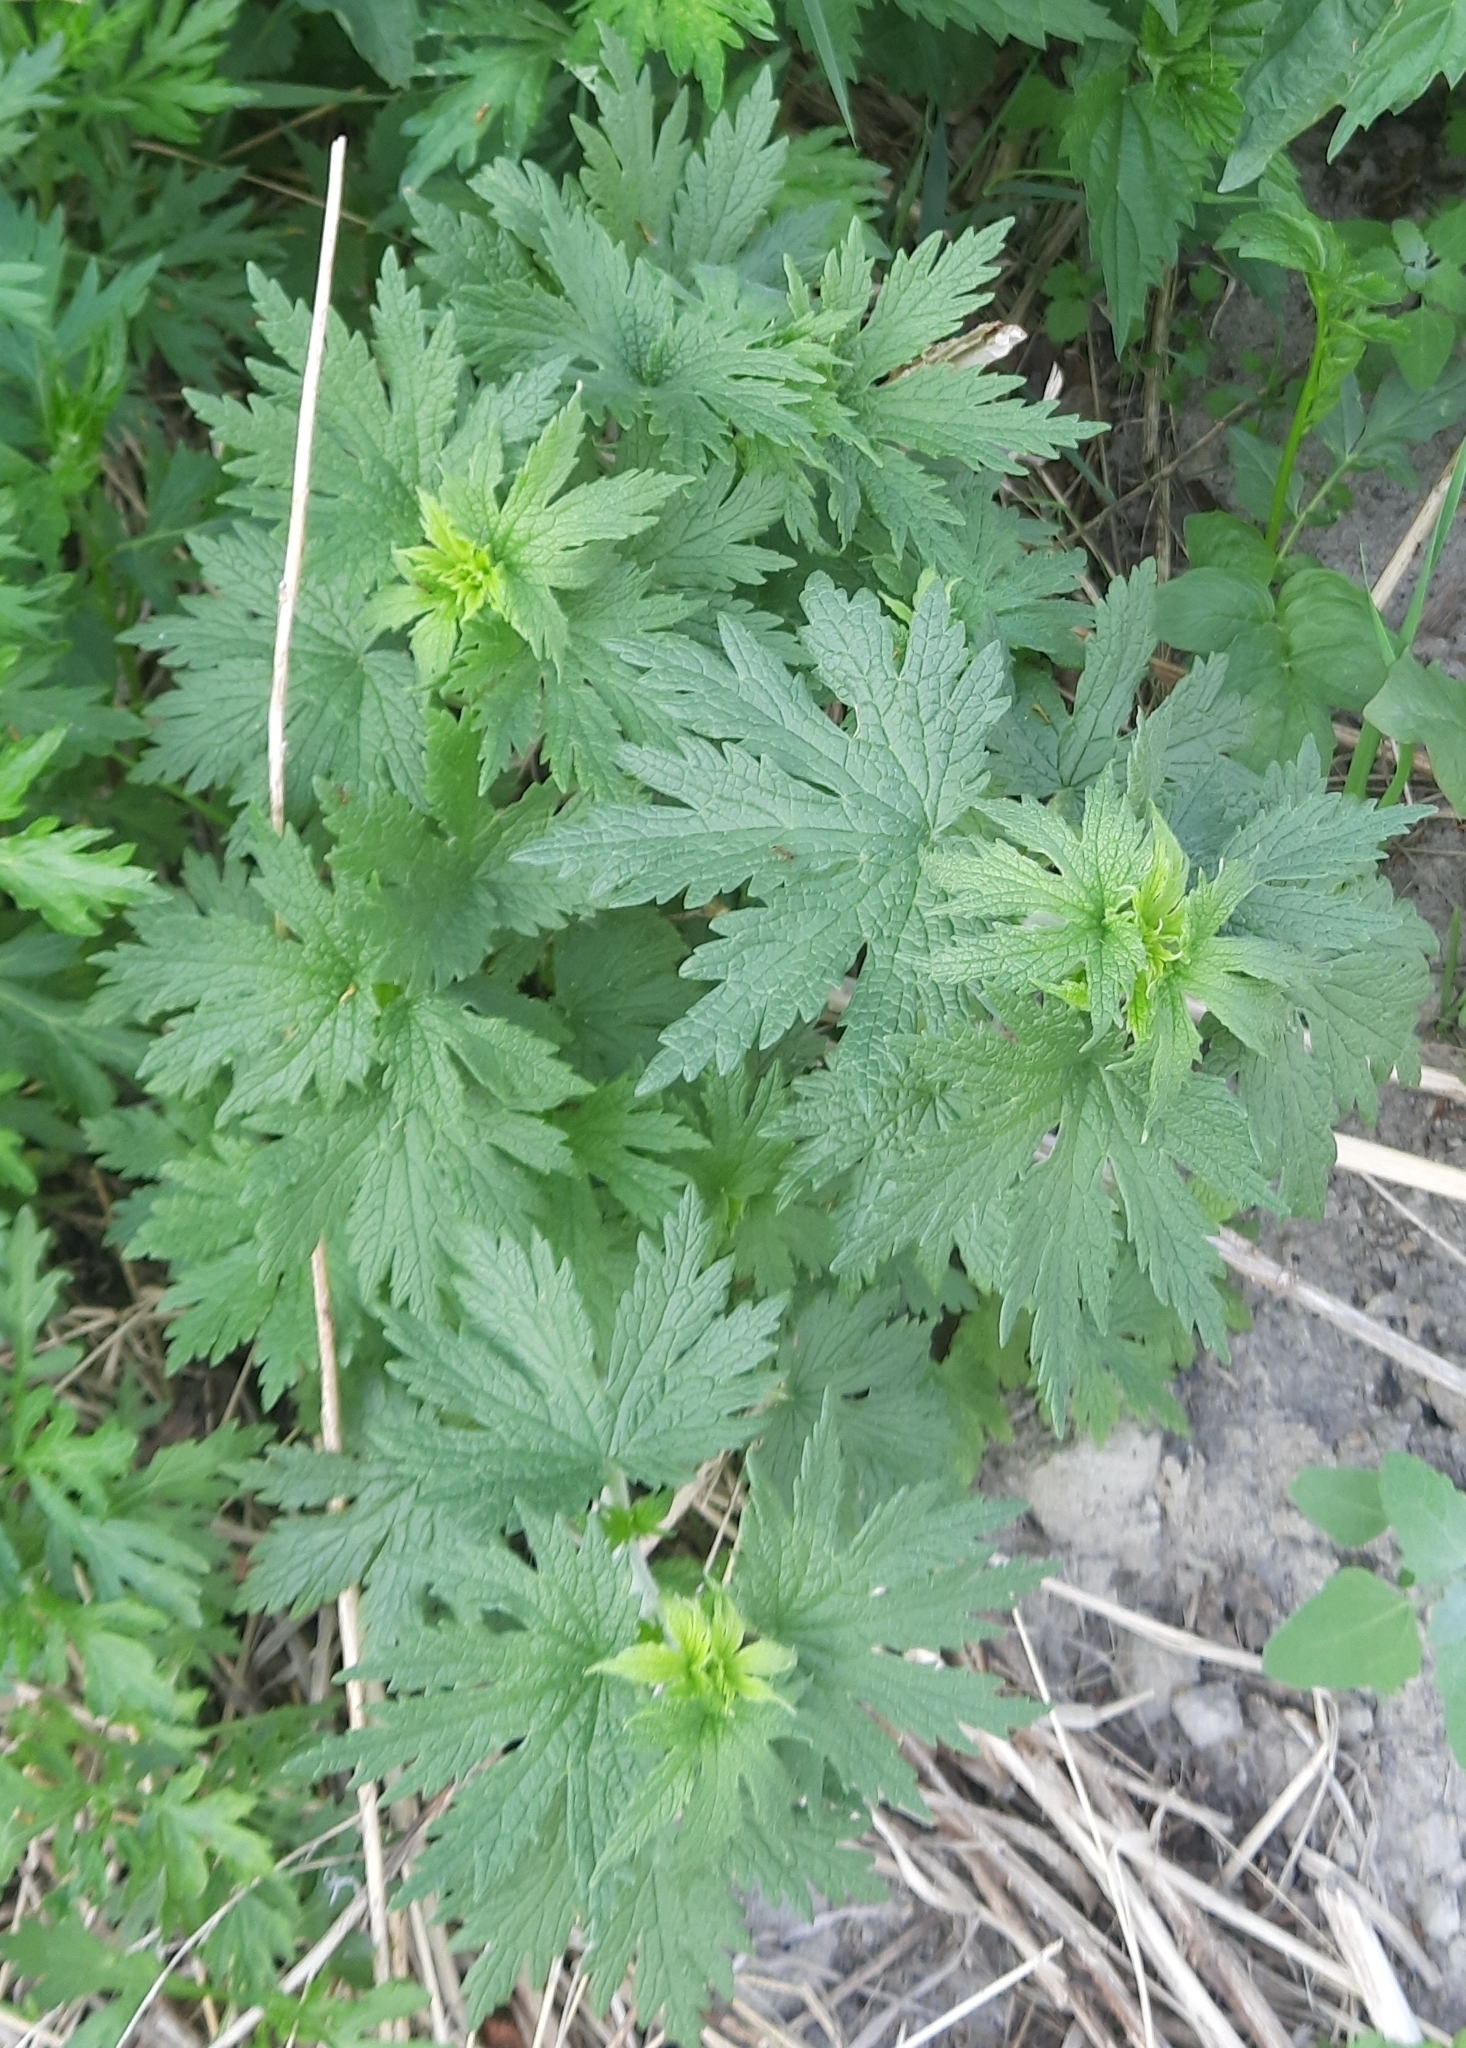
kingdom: Plantae
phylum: Tracheophyta
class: Magnoliopsida
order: Lamiales
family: Lamiaceae
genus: Leonurus
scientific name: Leonurus quinquelobatus
